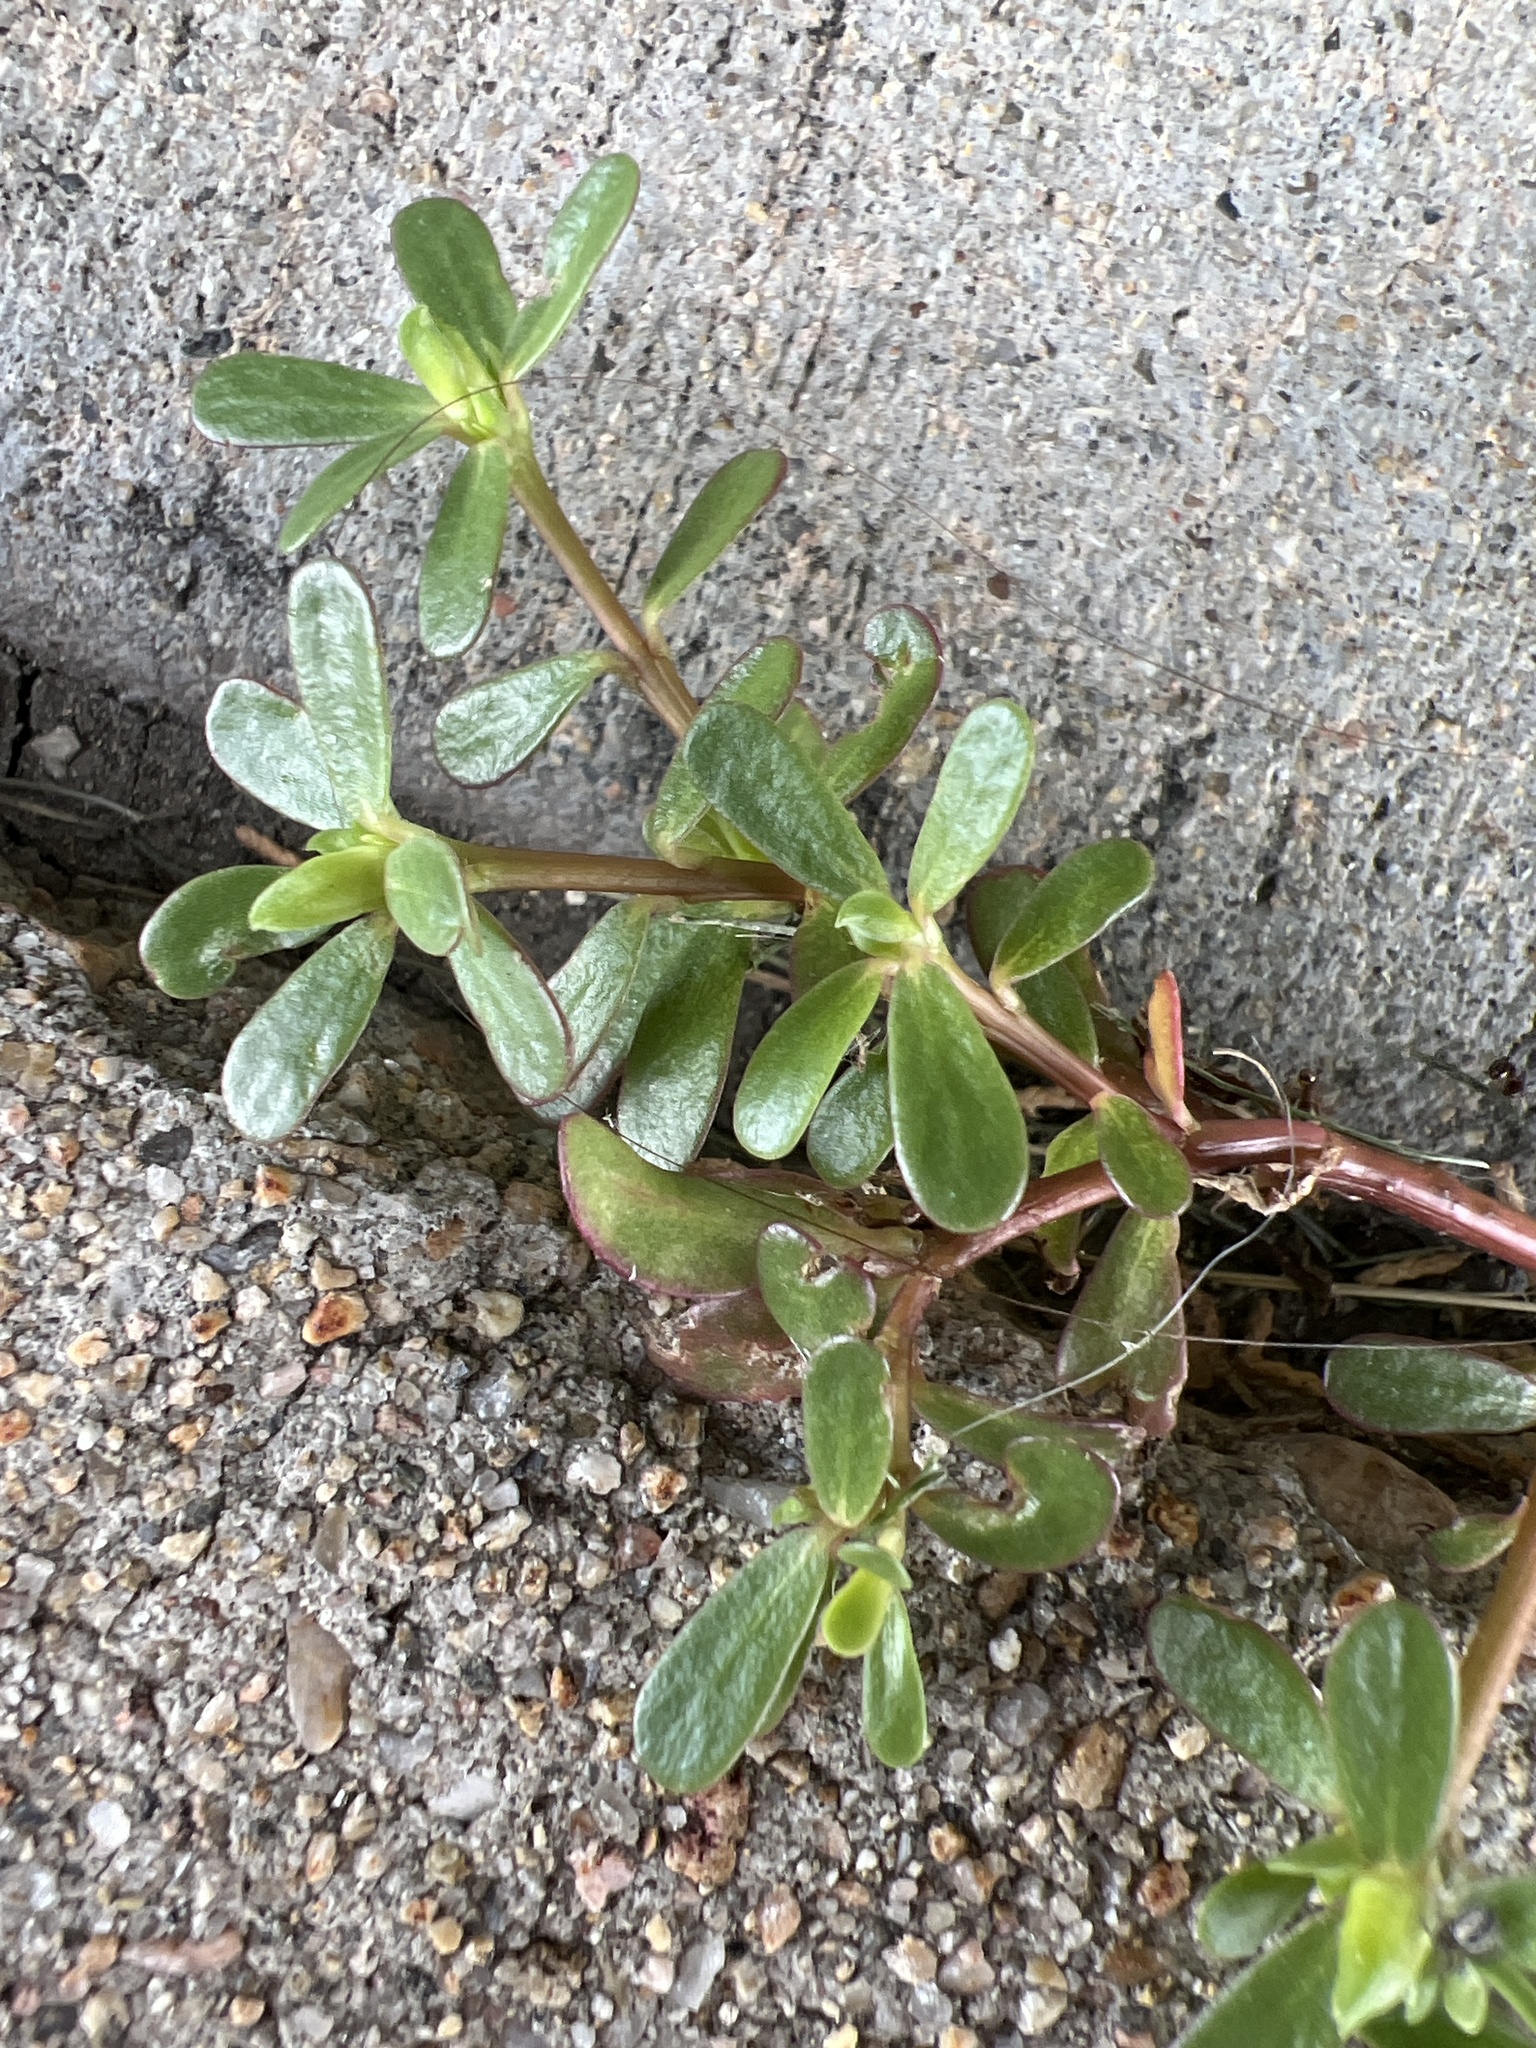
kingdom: Plantae
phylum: Tracheophyta
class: Magnoliopsida
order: Caryophyllales
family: Portulacaceae
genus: Portulaca
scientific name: Portulaca oleracea
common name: Common purslane
